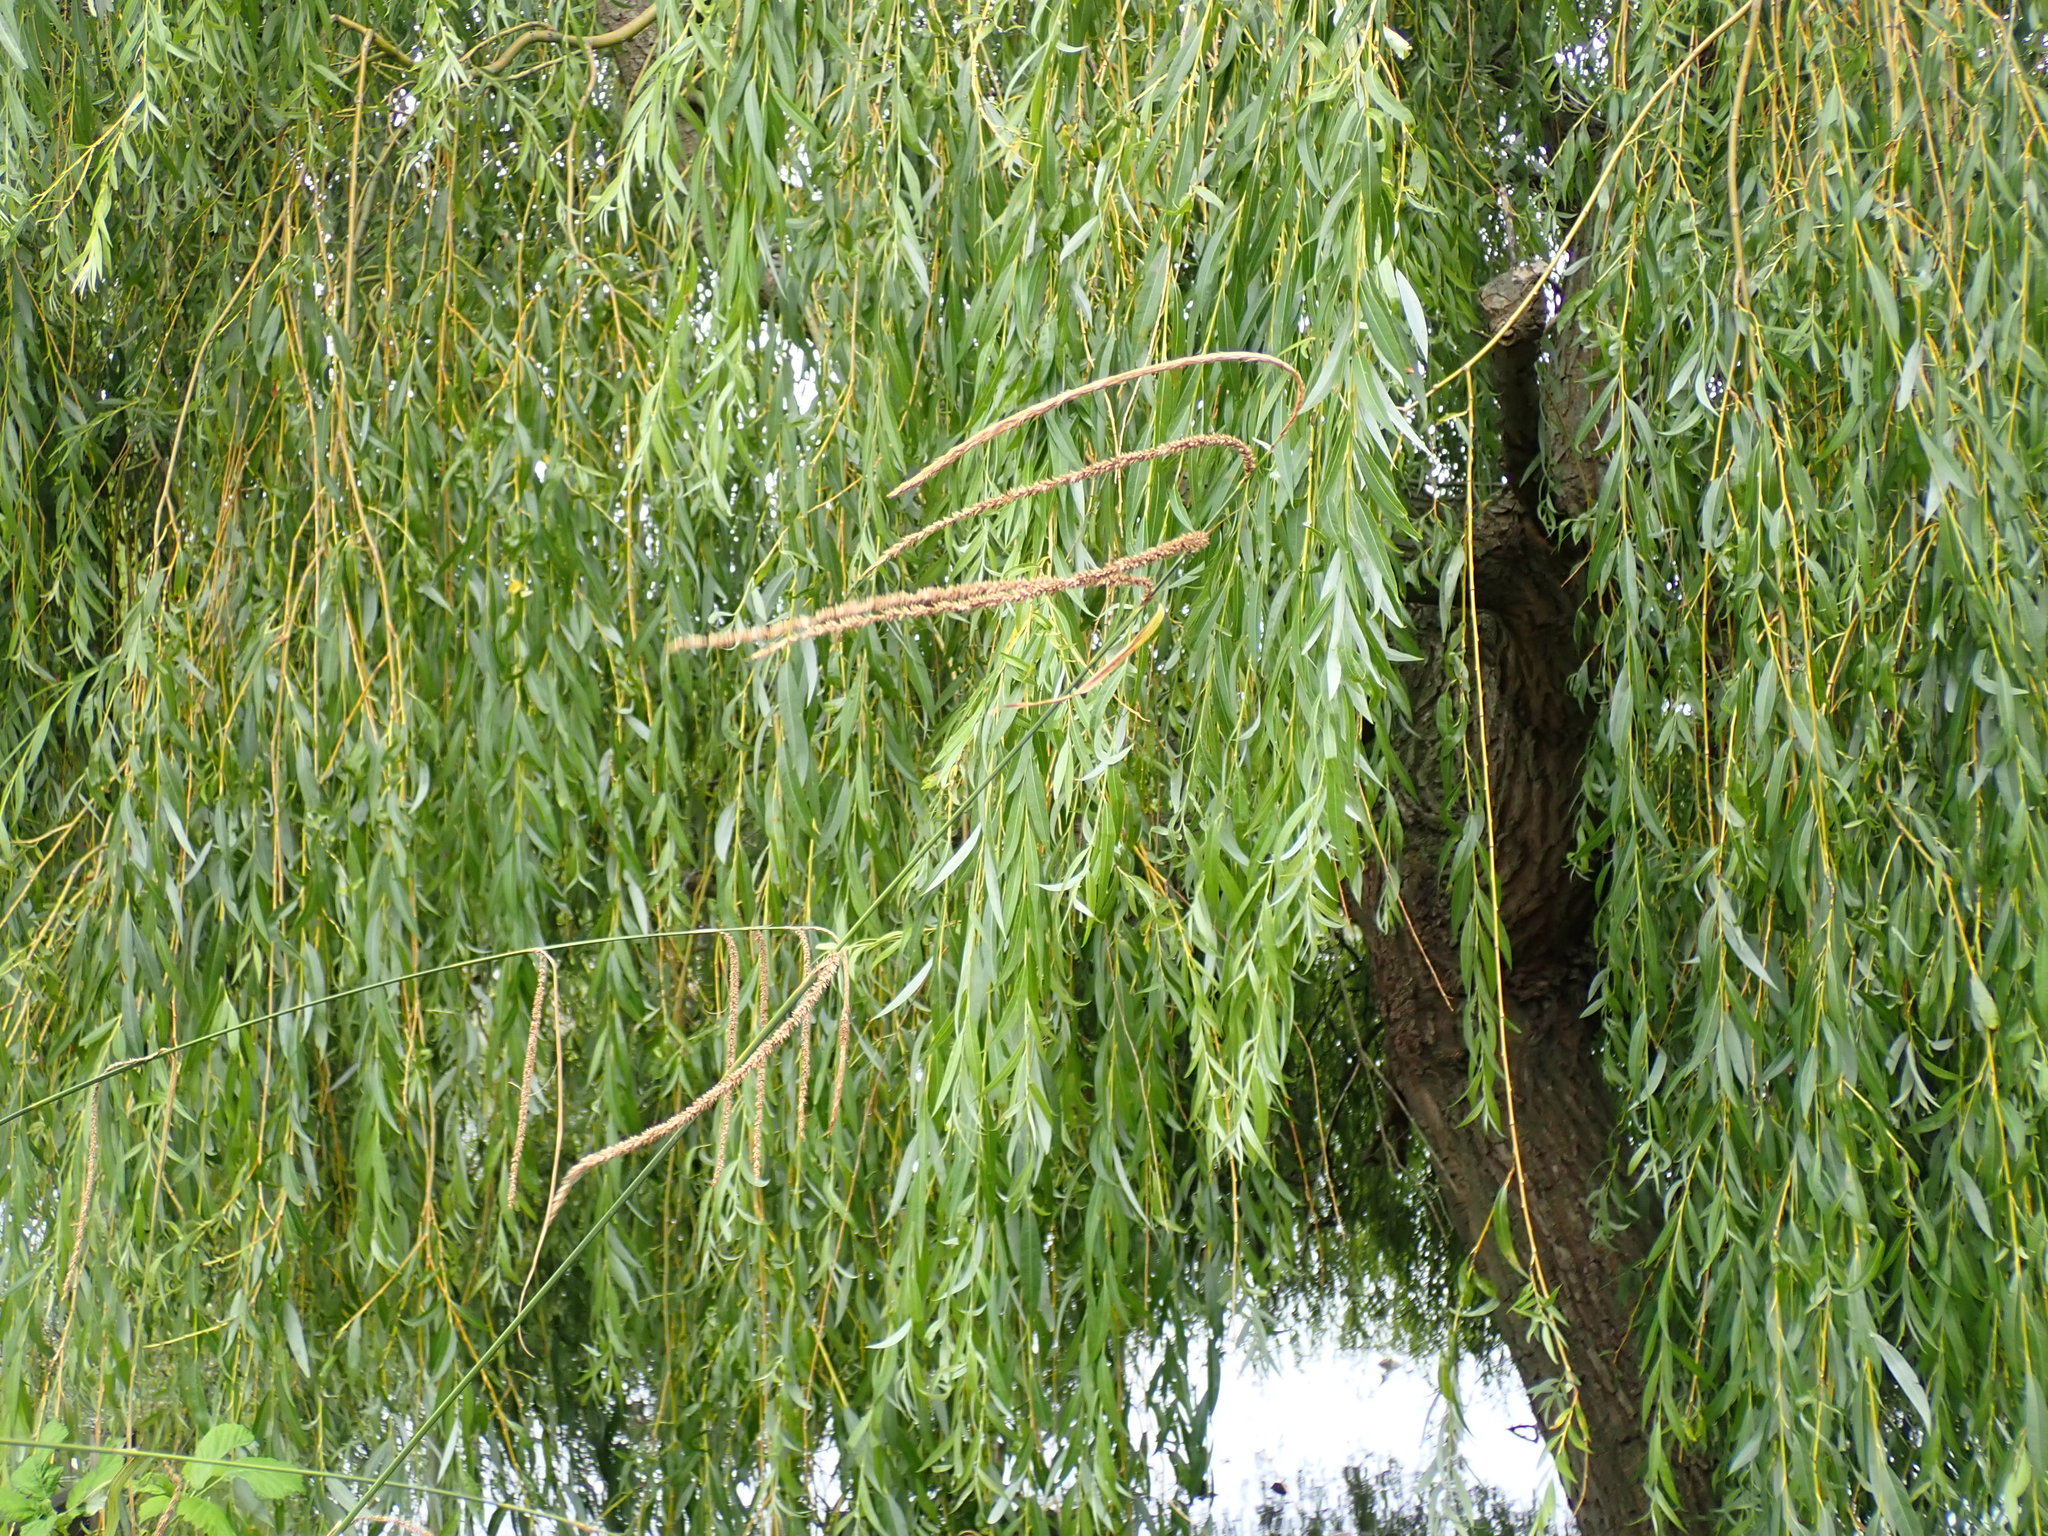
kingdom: Plantae
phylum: Tracheophyta
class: Magnoliopsida
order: Malpighiales
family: Salicaceae
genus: Salix
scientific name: Salix pendulina
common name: Wisconsin weeping willow
